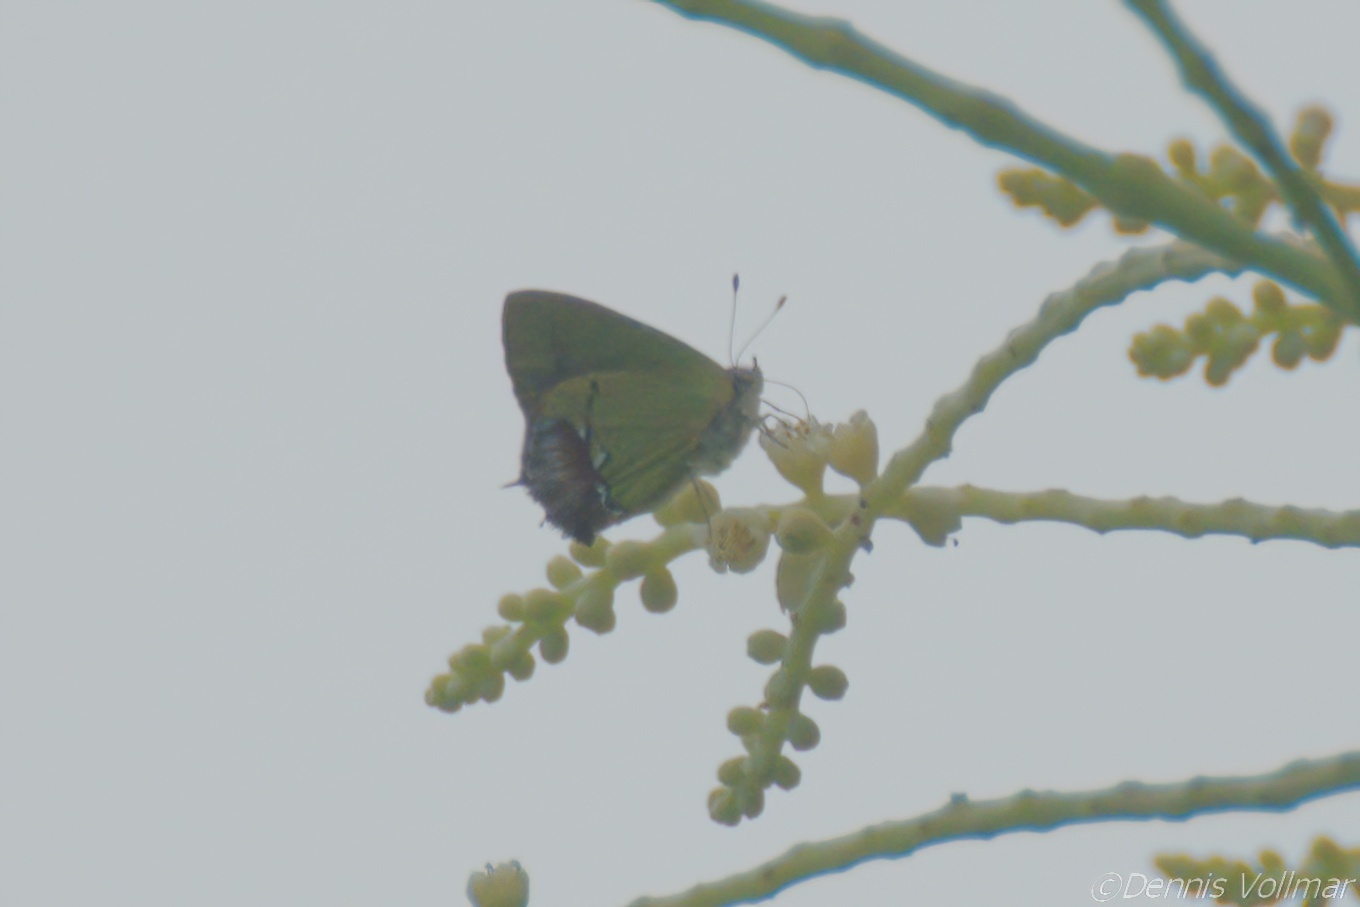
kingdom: Animalia
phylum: Arthropoda
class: Insecta
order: Lepidoptera
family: Lycaenidae
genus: Thecla
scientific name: Thecla maesites
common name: Verde azul hairstreak
